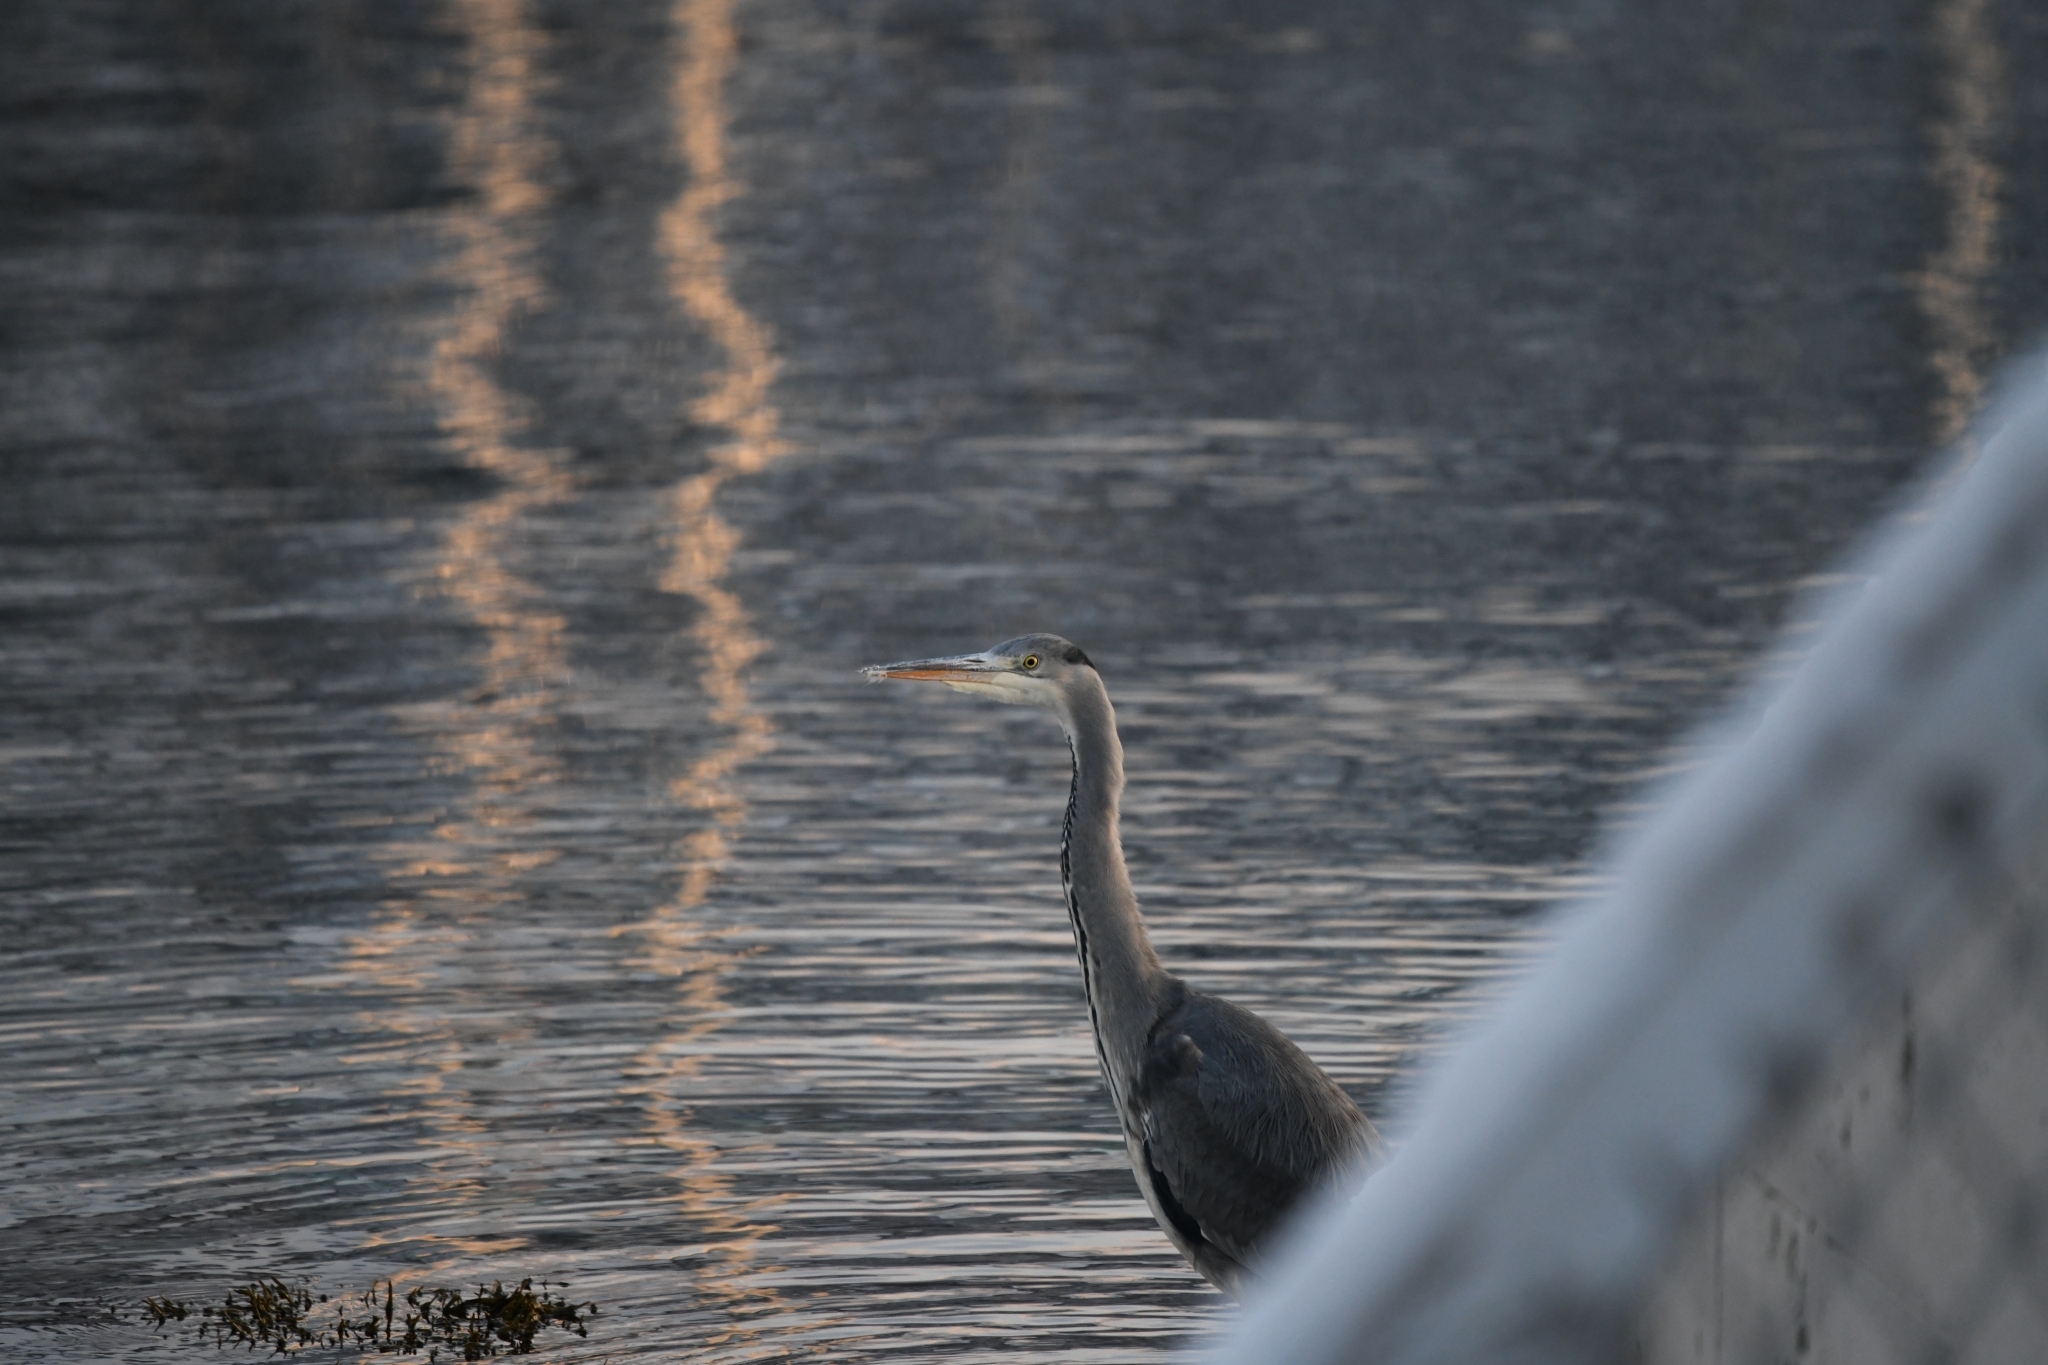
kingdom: Animalia
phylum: Chordata
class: Aves
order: Pelecaniformes
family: Ardeidae
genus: Ardea
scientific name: Ardea cinerea
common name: Grey heron
